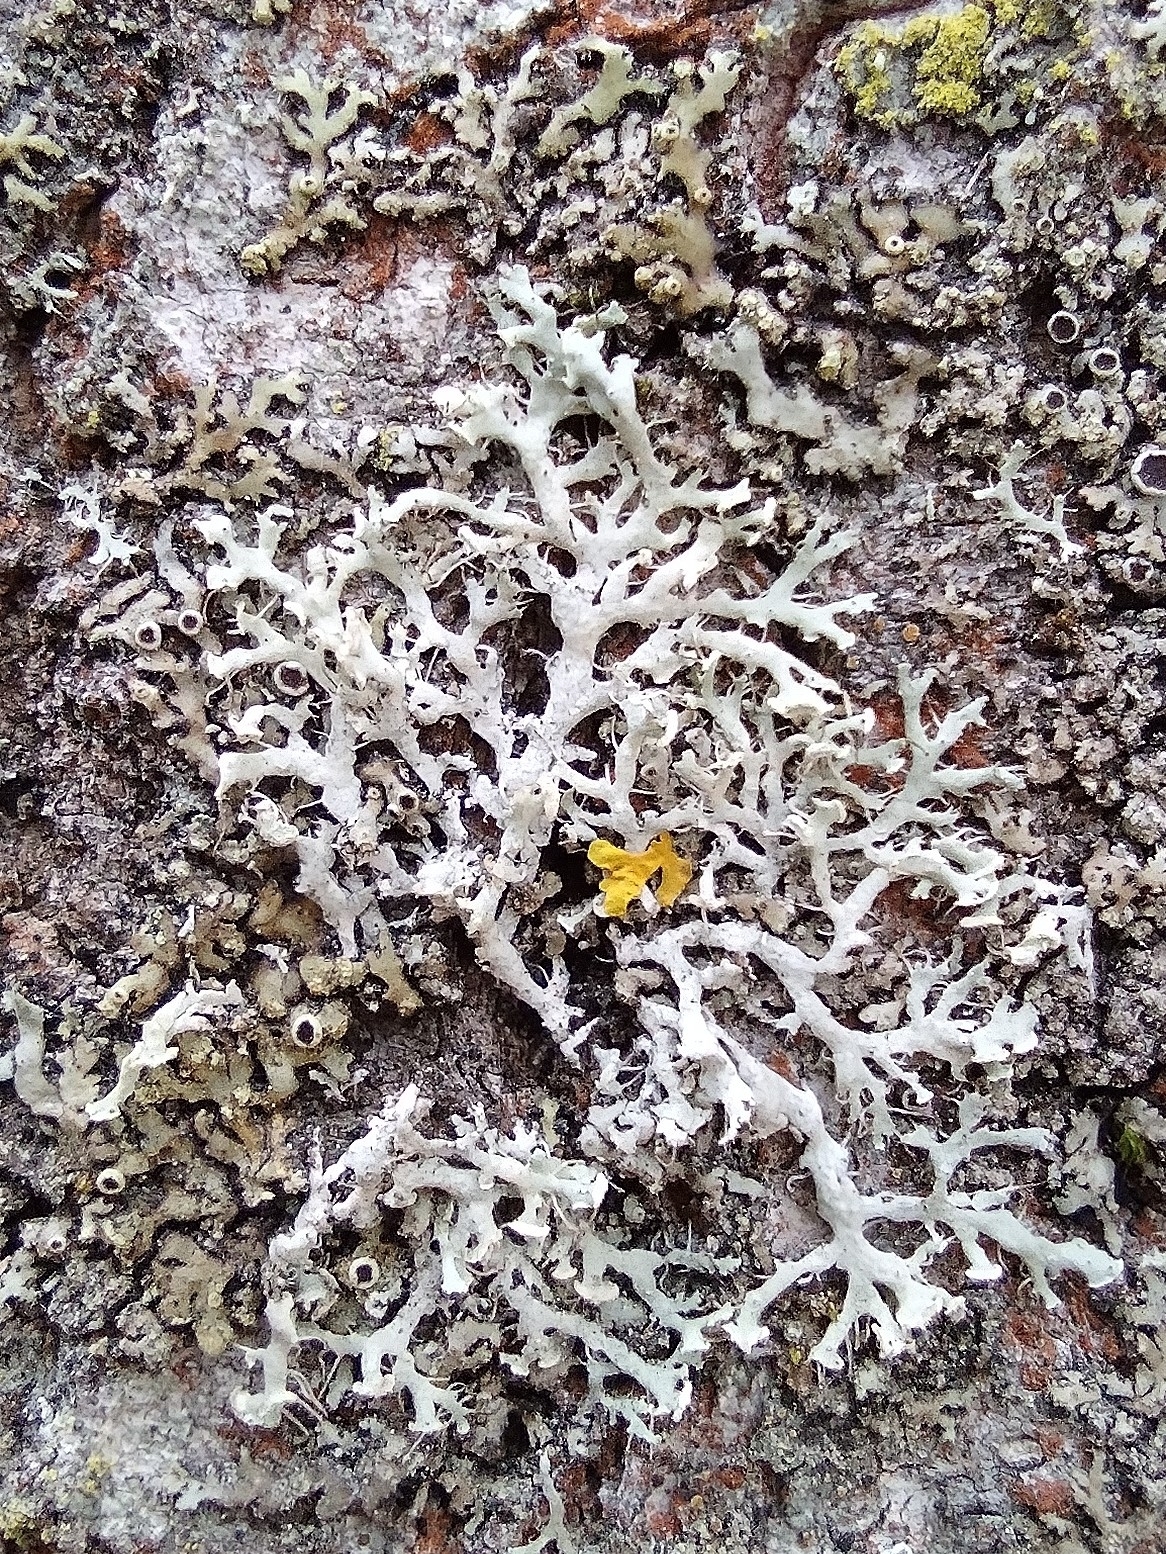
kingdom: Fungi
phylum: Ascomycota
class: Lecanoromycetes
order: Caliciales
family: Physciaceae
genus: Physcia
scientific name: Physcia tenella
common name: Fringed rosette lichen
